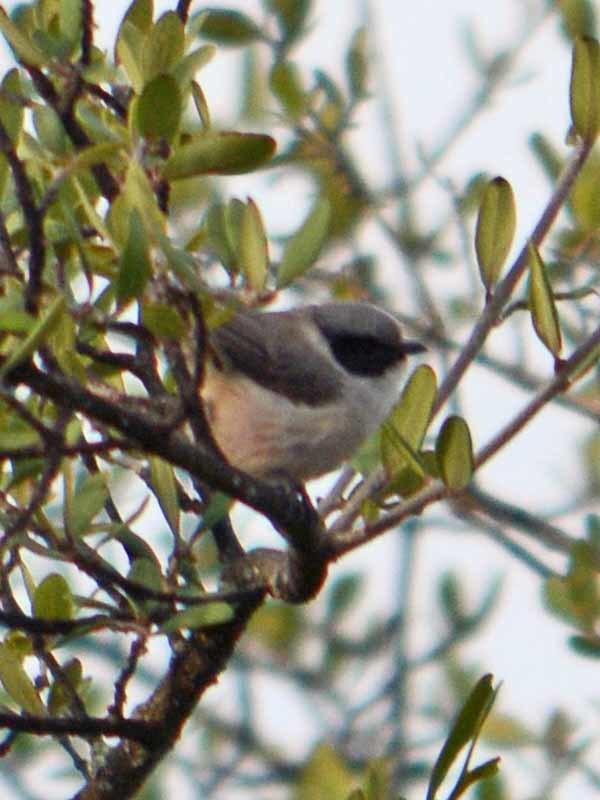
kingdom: Animalia
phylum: Chordata
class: Aves
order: Passeriformes
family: Aegithalidae
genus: Psaltriparus
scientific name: Psaltriparus minimus
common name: American bushtit
